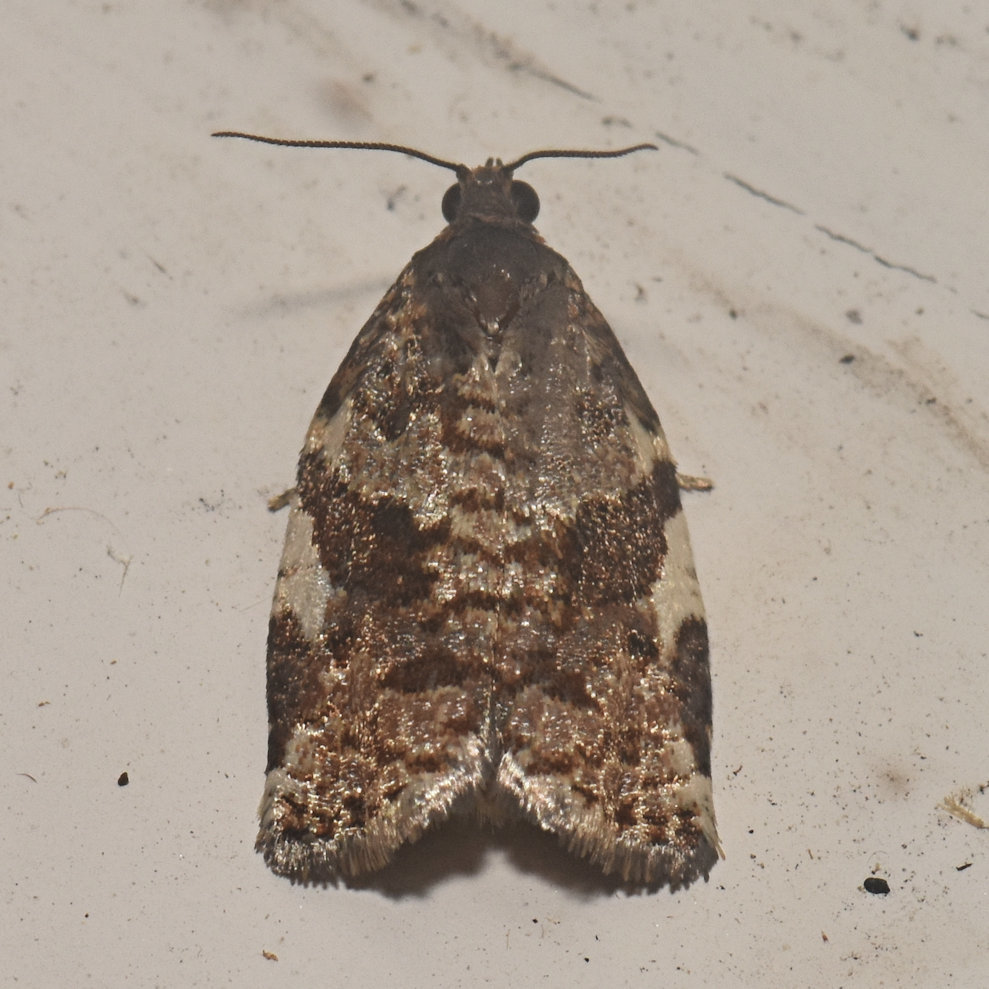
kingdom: Animalia
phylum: Arthropoda
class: Insecta
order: Lepidoptera
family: Tortricidae
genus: Archips
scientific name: Archips mortuana
